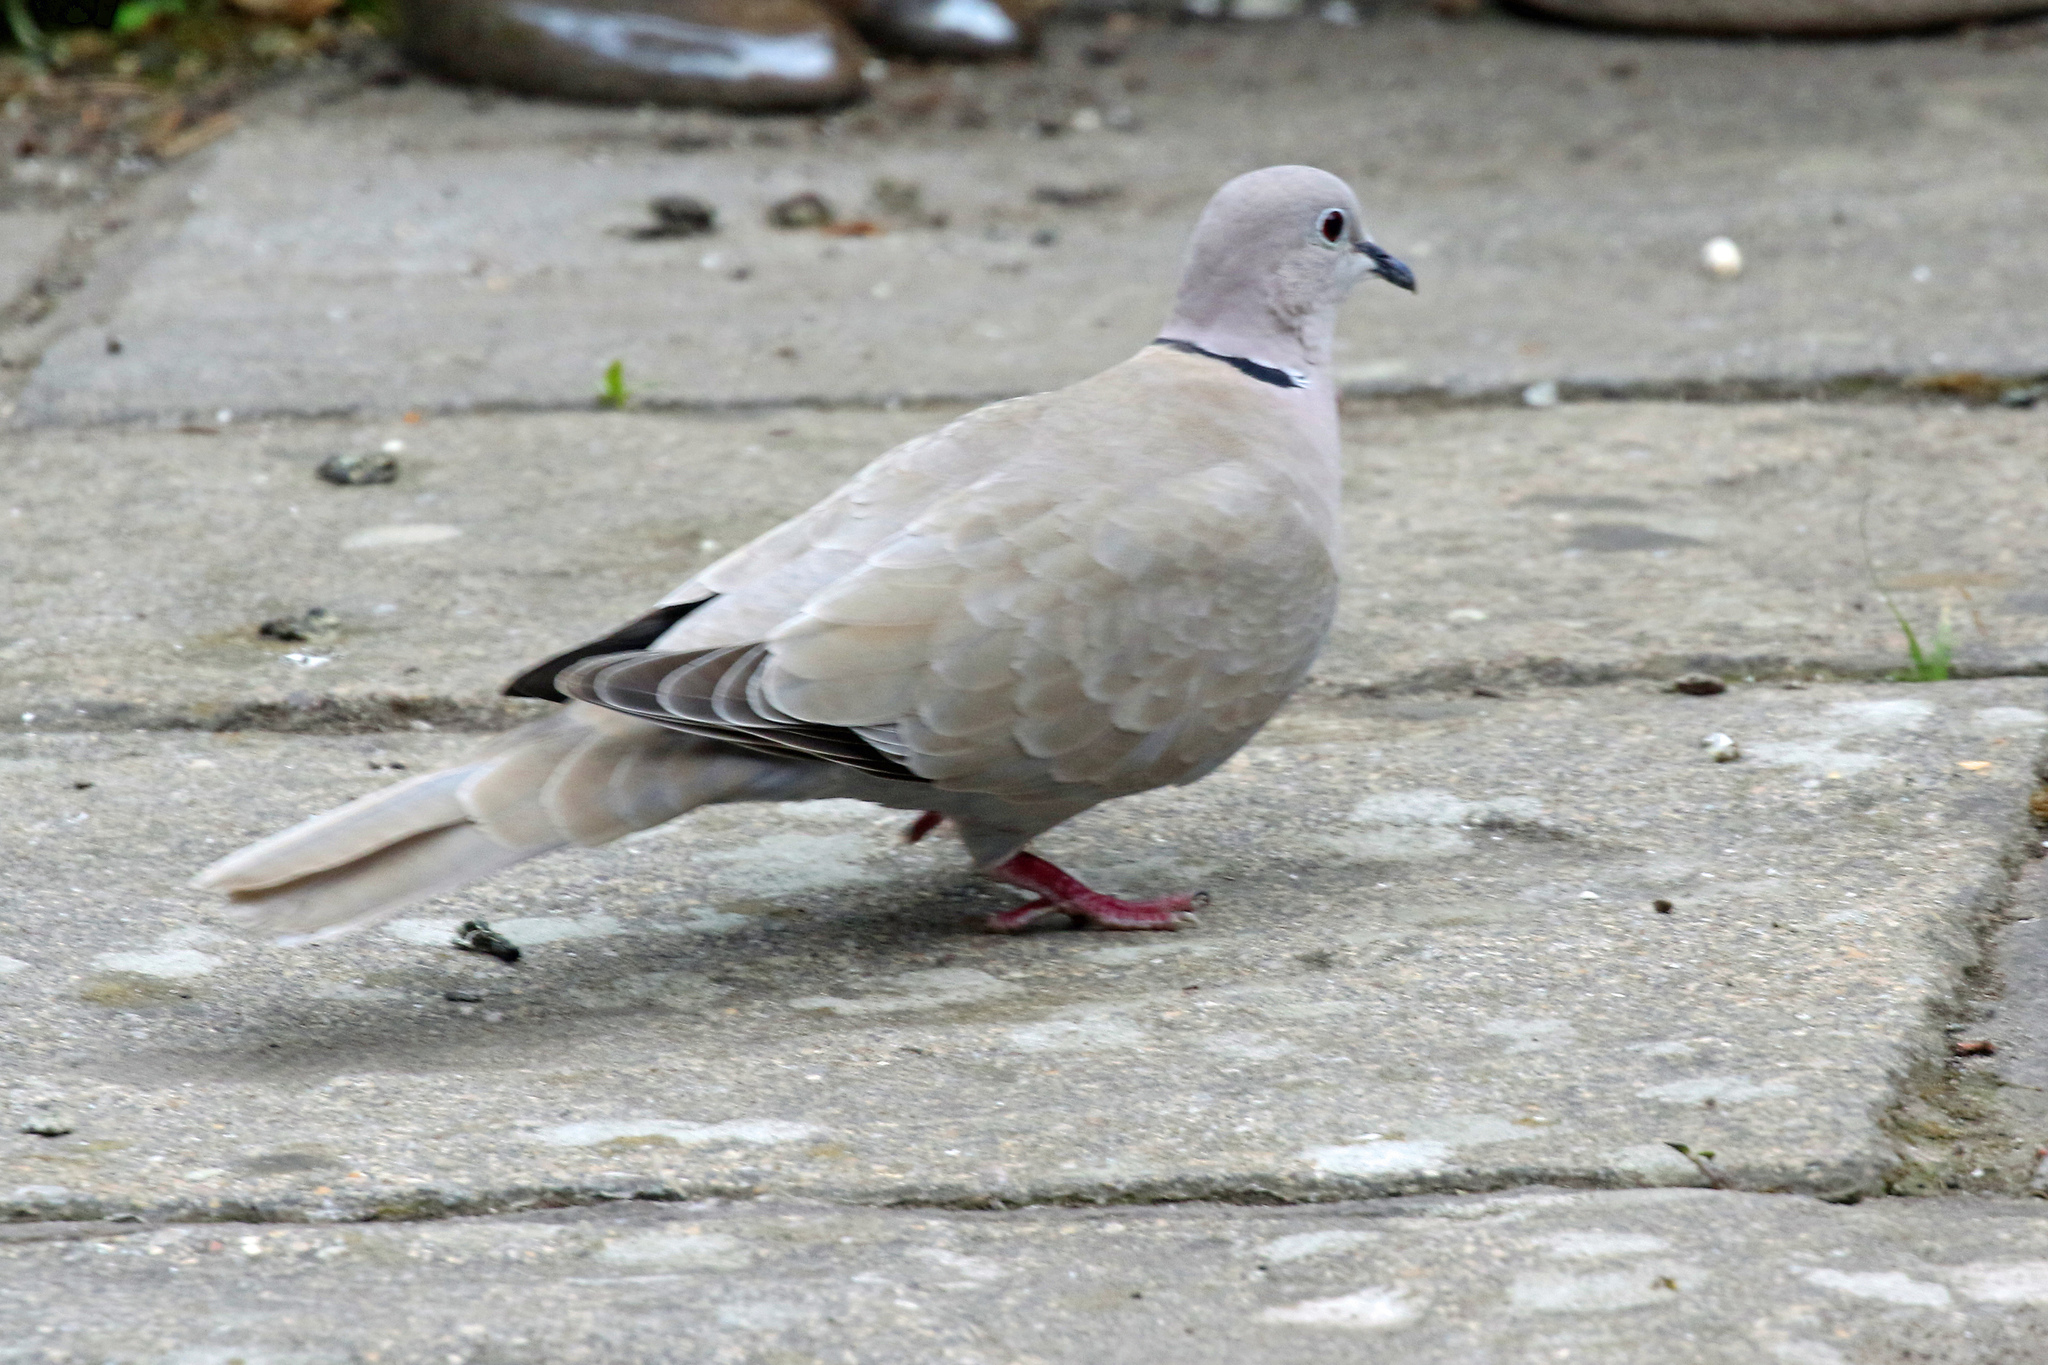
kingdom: Animalia
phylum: Chordata
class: Aves
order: Columbiformes
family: Columbidae
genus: Streptopelia
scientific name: Streptopelia decaocto
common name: Eurasian collared dove
